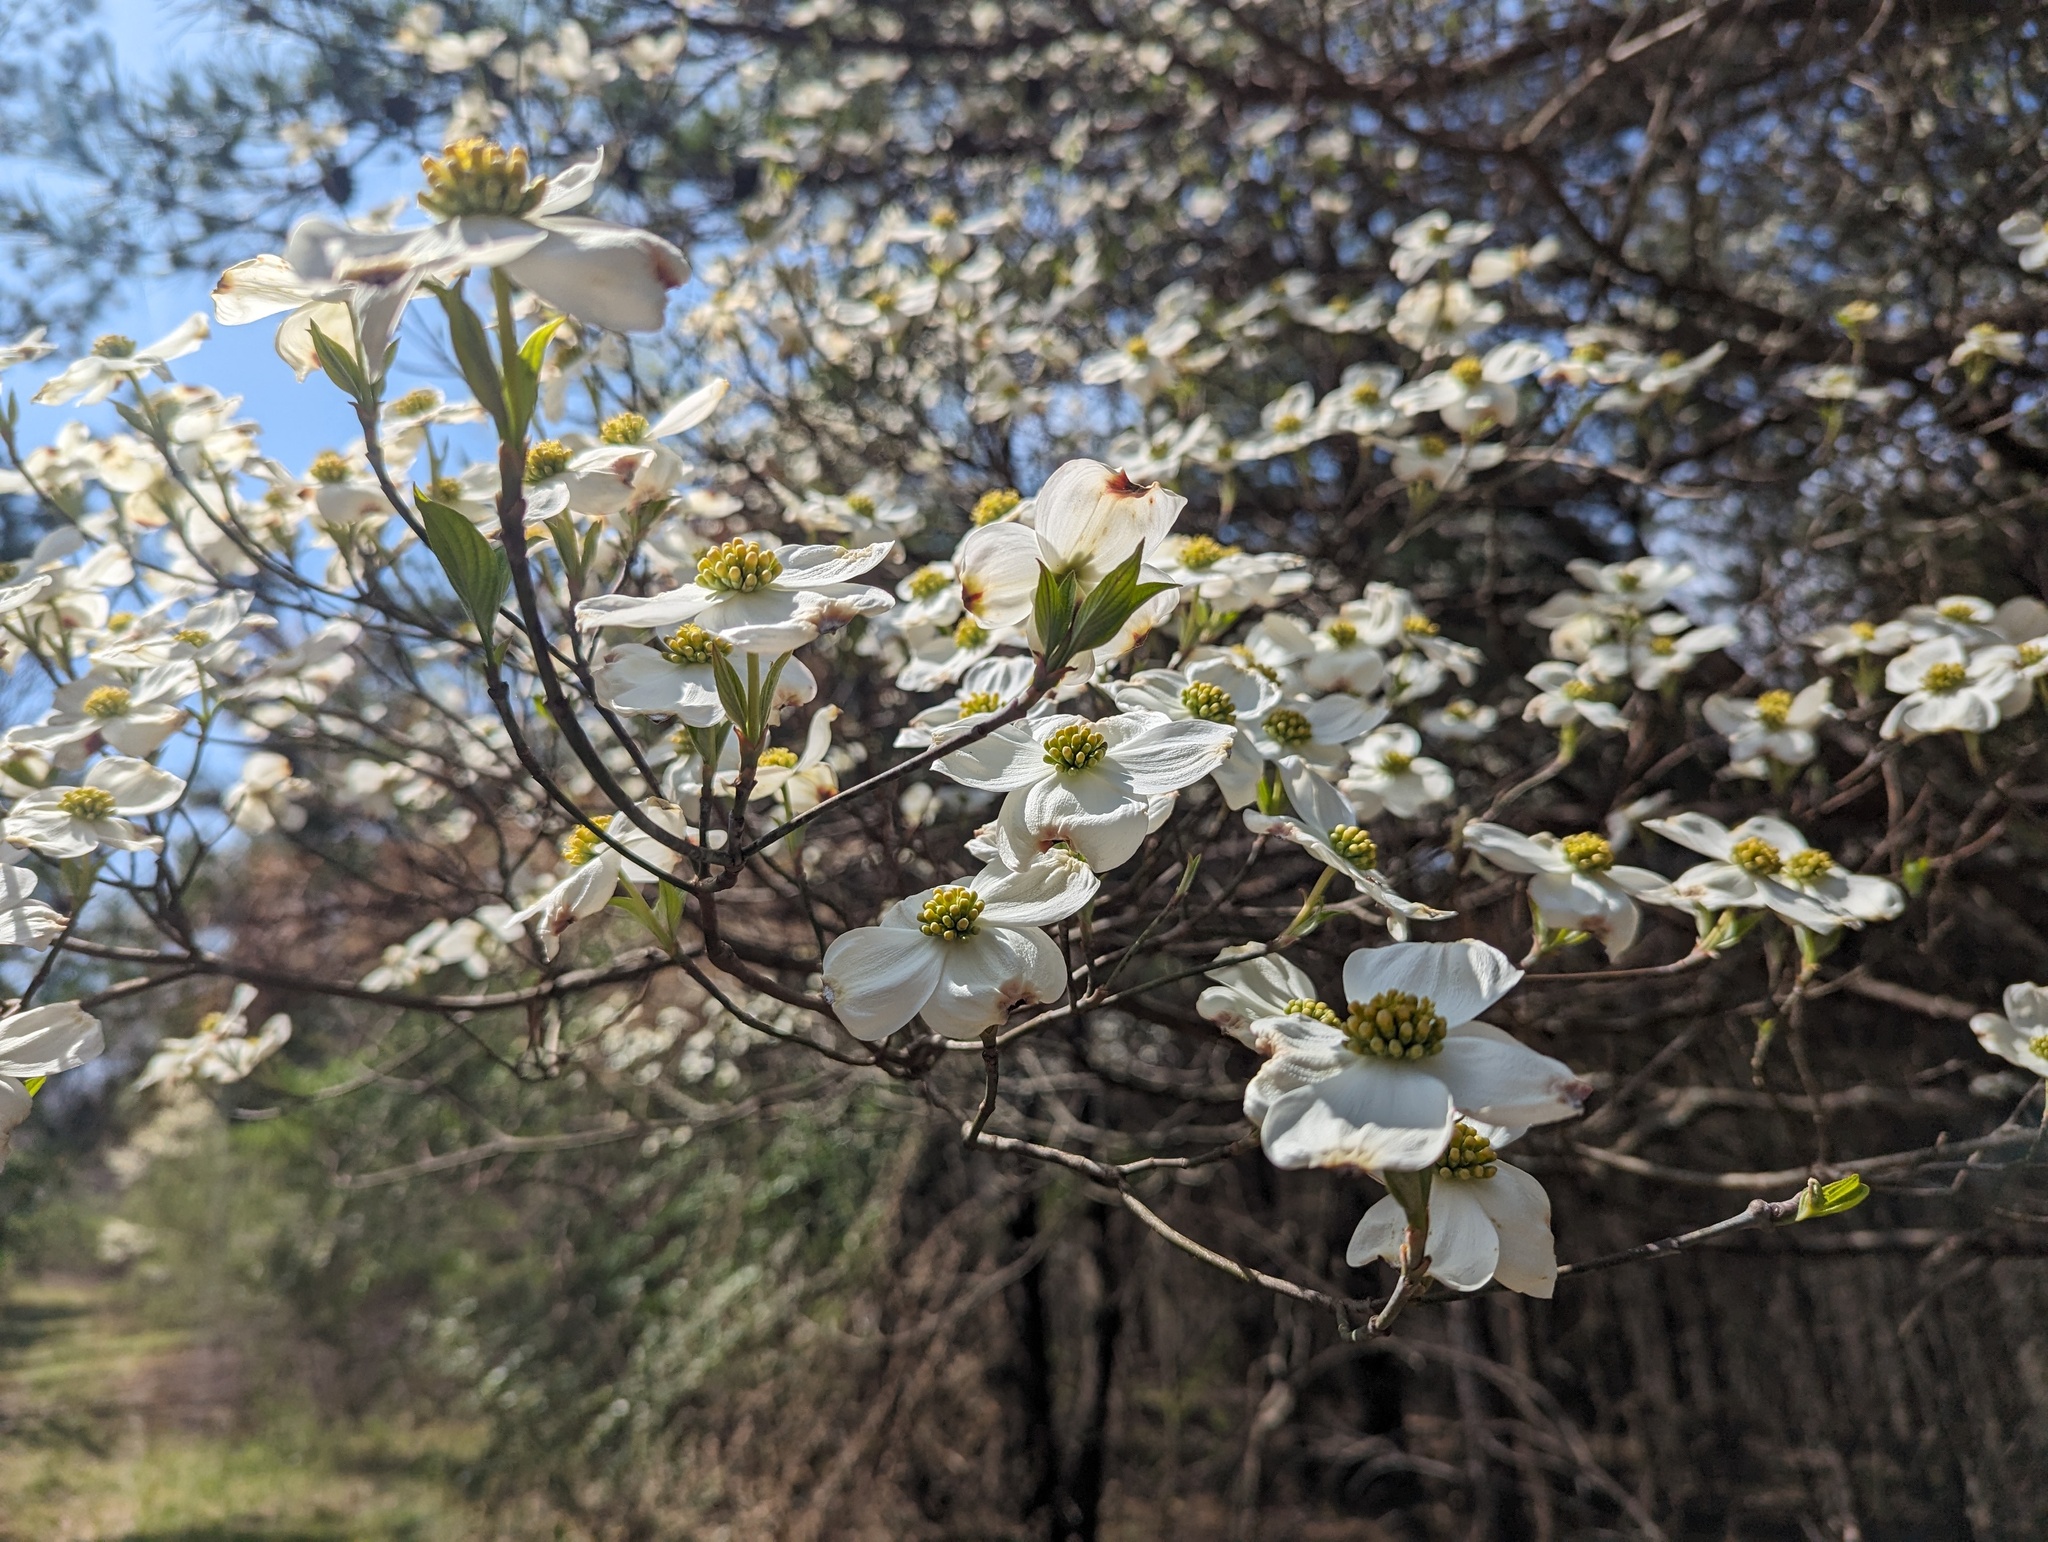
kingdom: Plantae
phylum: Tracheophyta
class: Magnoliopsida
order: Cornales
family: Cornaceae
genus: Cornus
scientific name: Cornus florida
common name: Flowering dogwood
